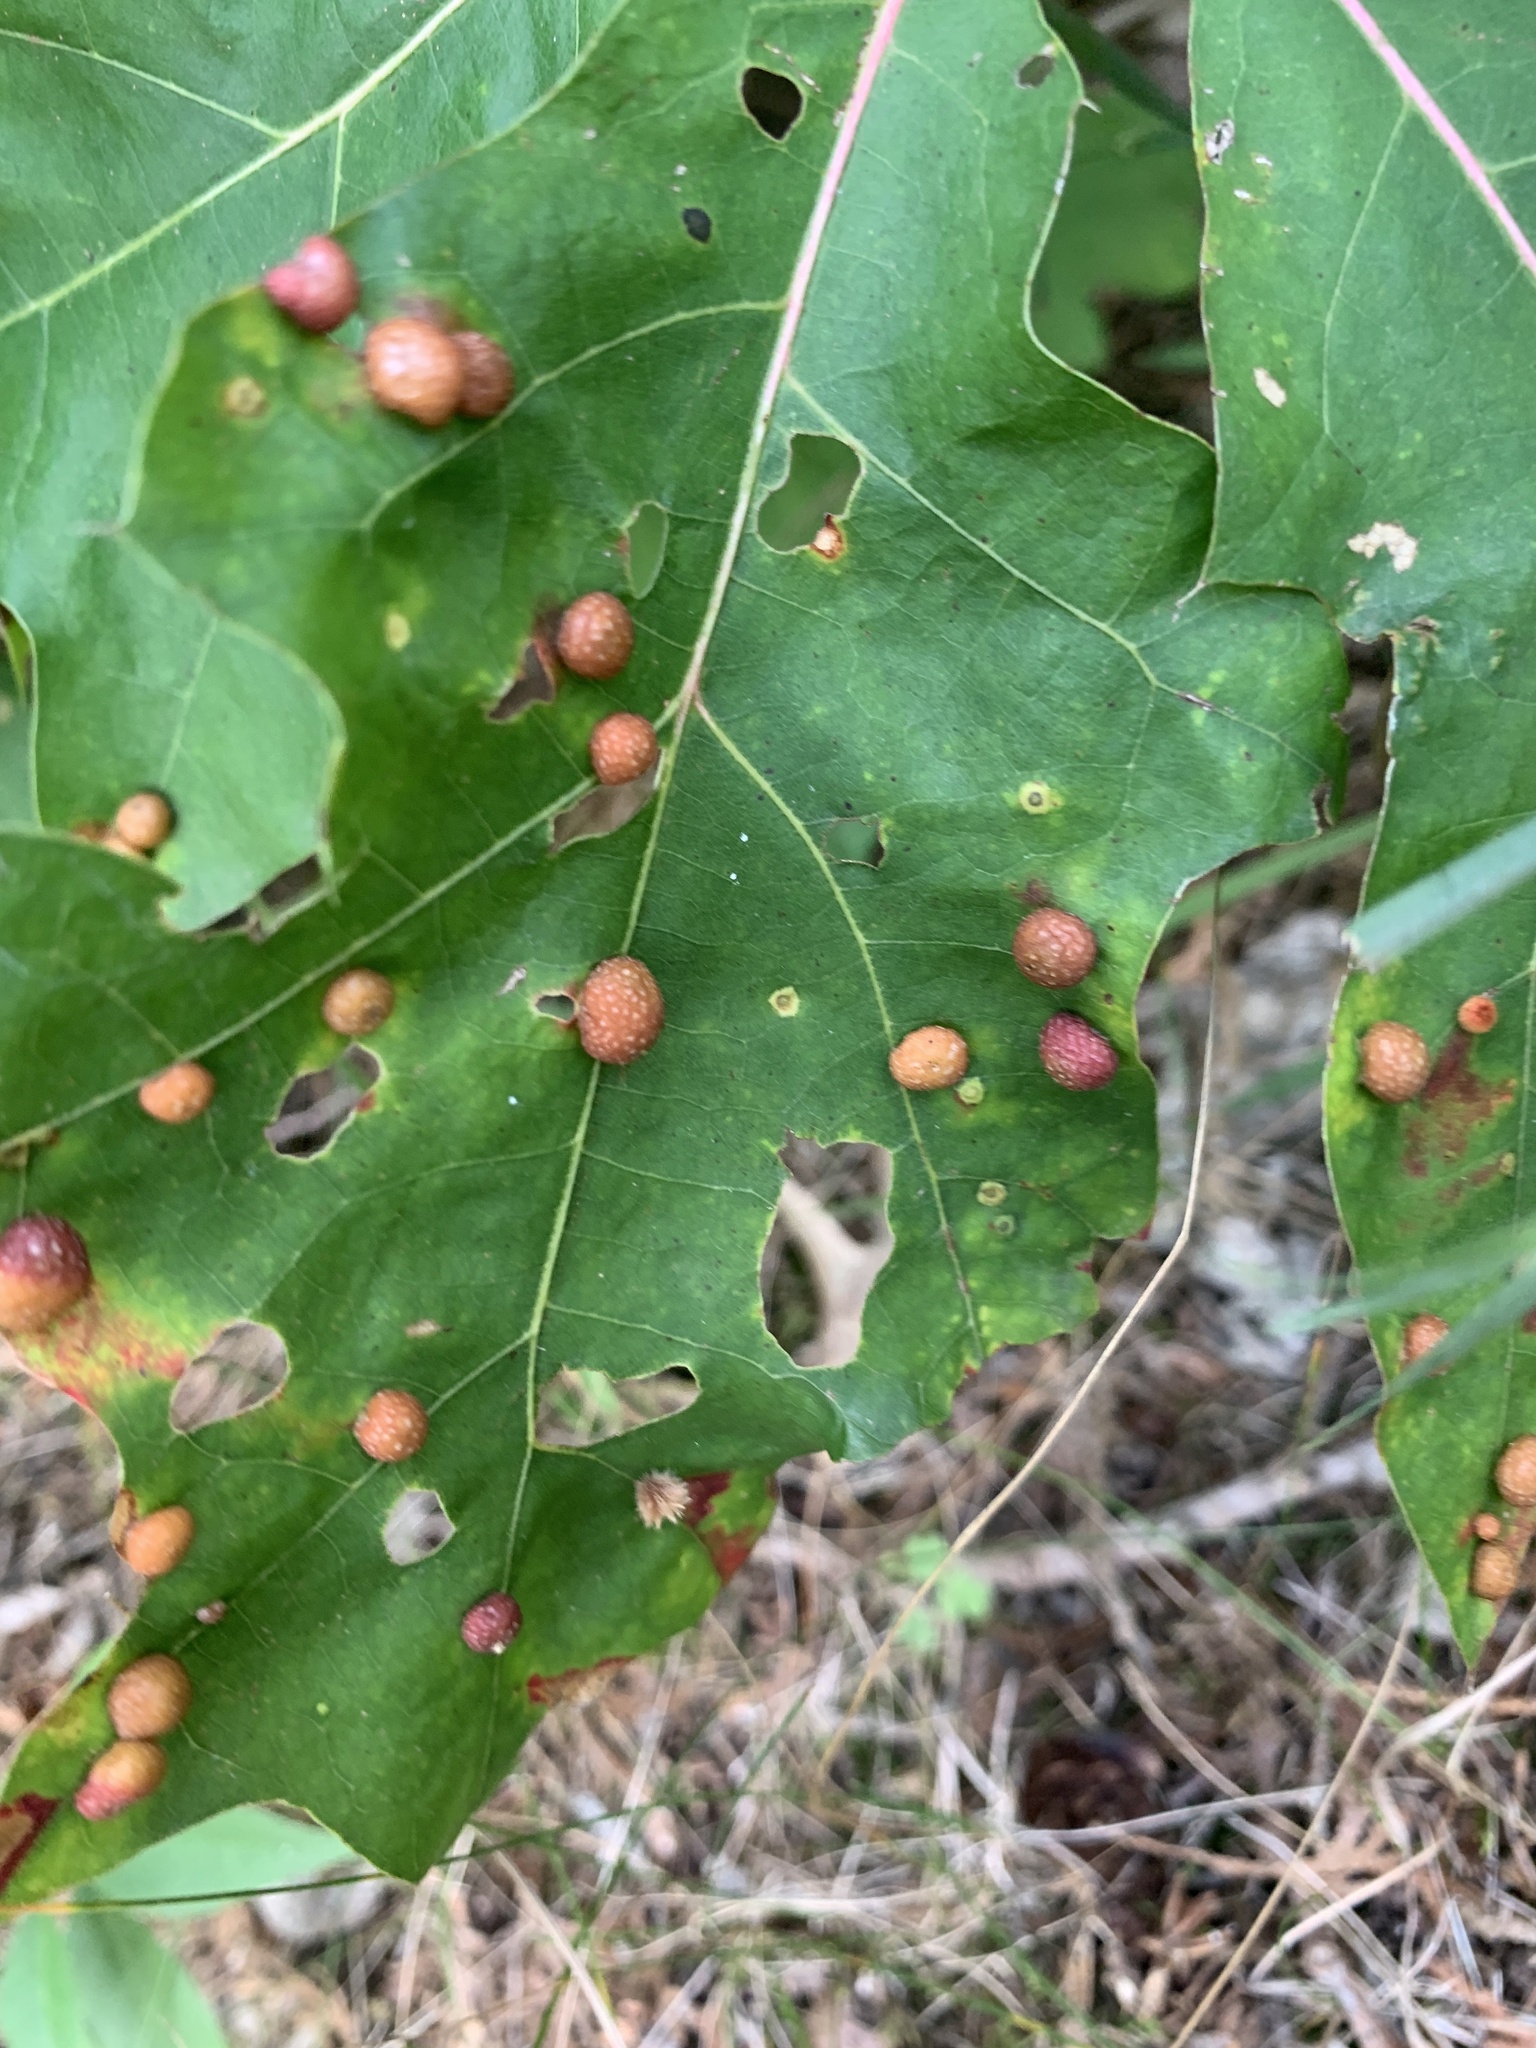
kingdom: Animalia
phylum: Arthropoda
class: Insecta
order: Diptera
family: Cecidomyiidae
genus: Polystepha
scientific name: Polystepha pilulae
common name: Oak leaf gall midge
